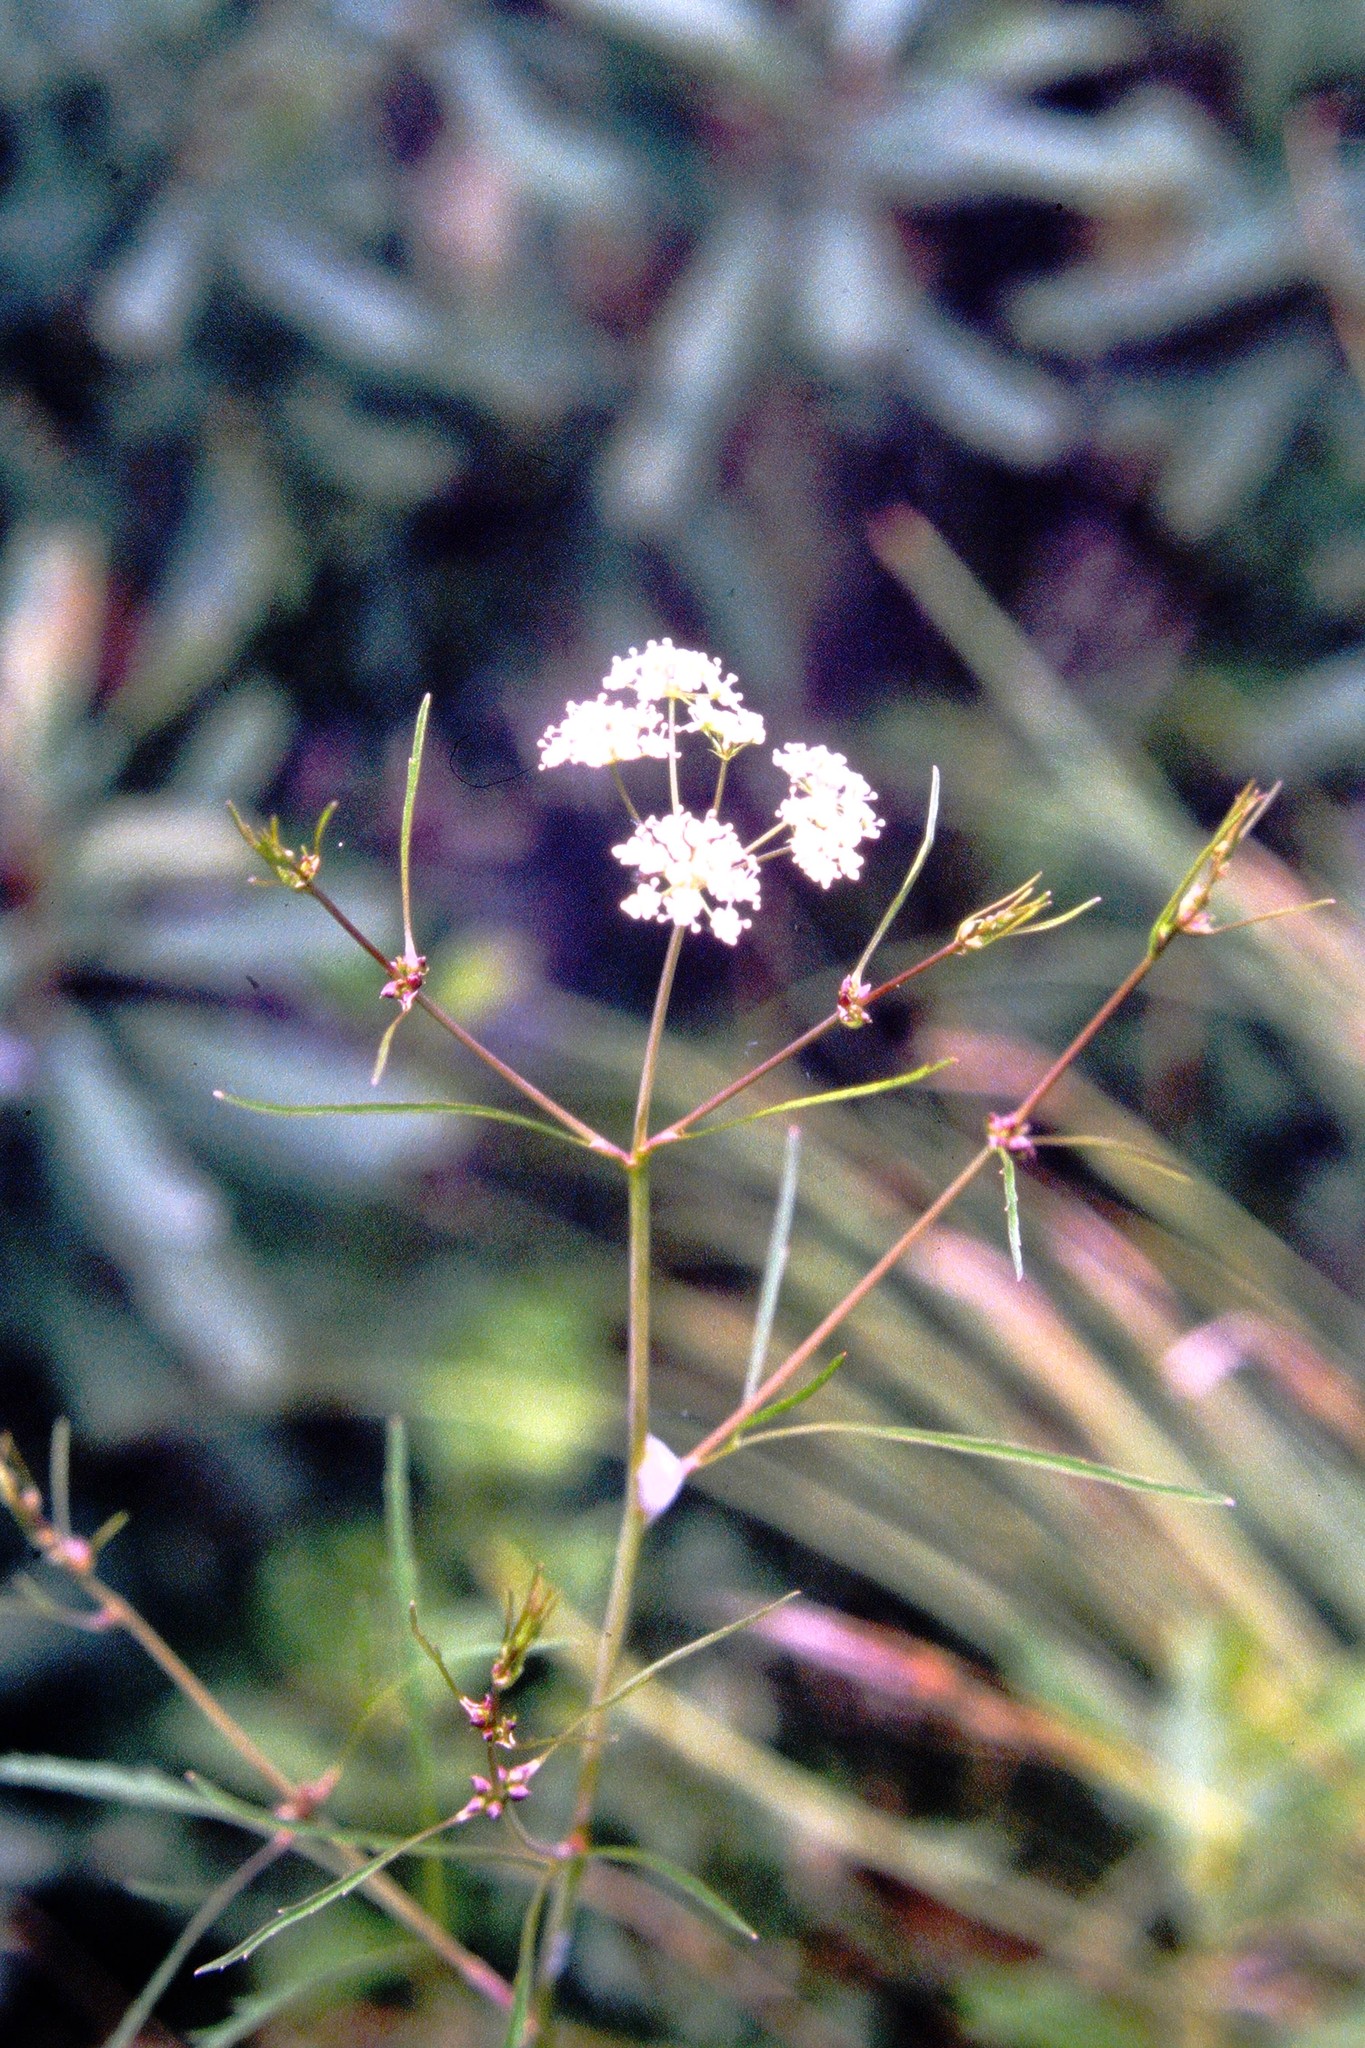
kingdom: Plantae
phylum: Tracheophyta
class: Magnoliopsida
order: Apiales
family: Apiaceae
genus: Cicuta
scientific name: Cicuta bulbifera
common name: Bulb-bearing water-hemlock
